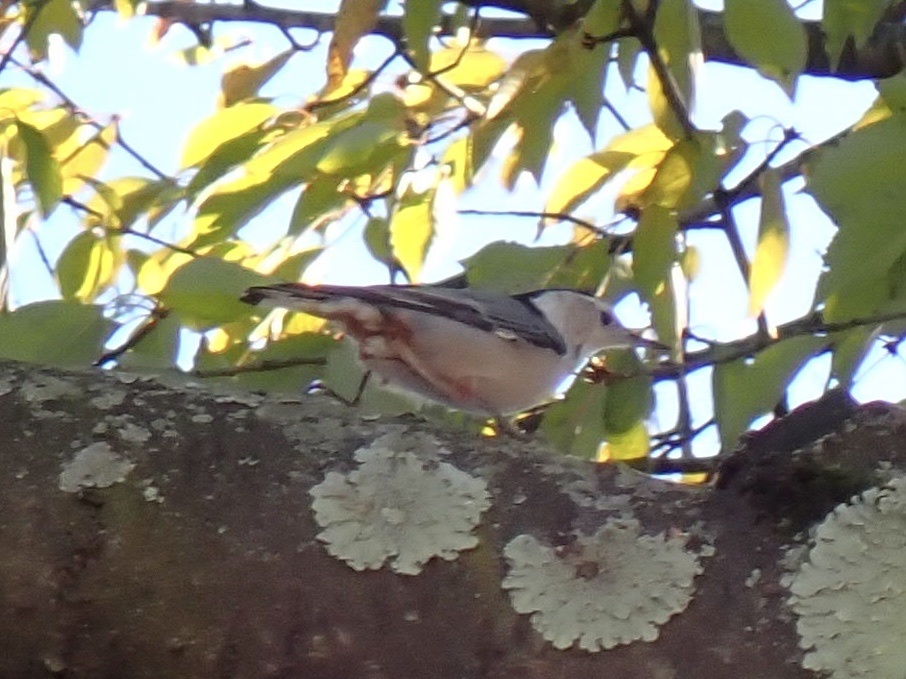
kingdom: Animalia
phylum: Chordata
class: Aves
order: Passeriformes
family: Sittidae
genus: Sitta
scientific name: Sitta carolinensis
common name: White-breasted nuthatch
